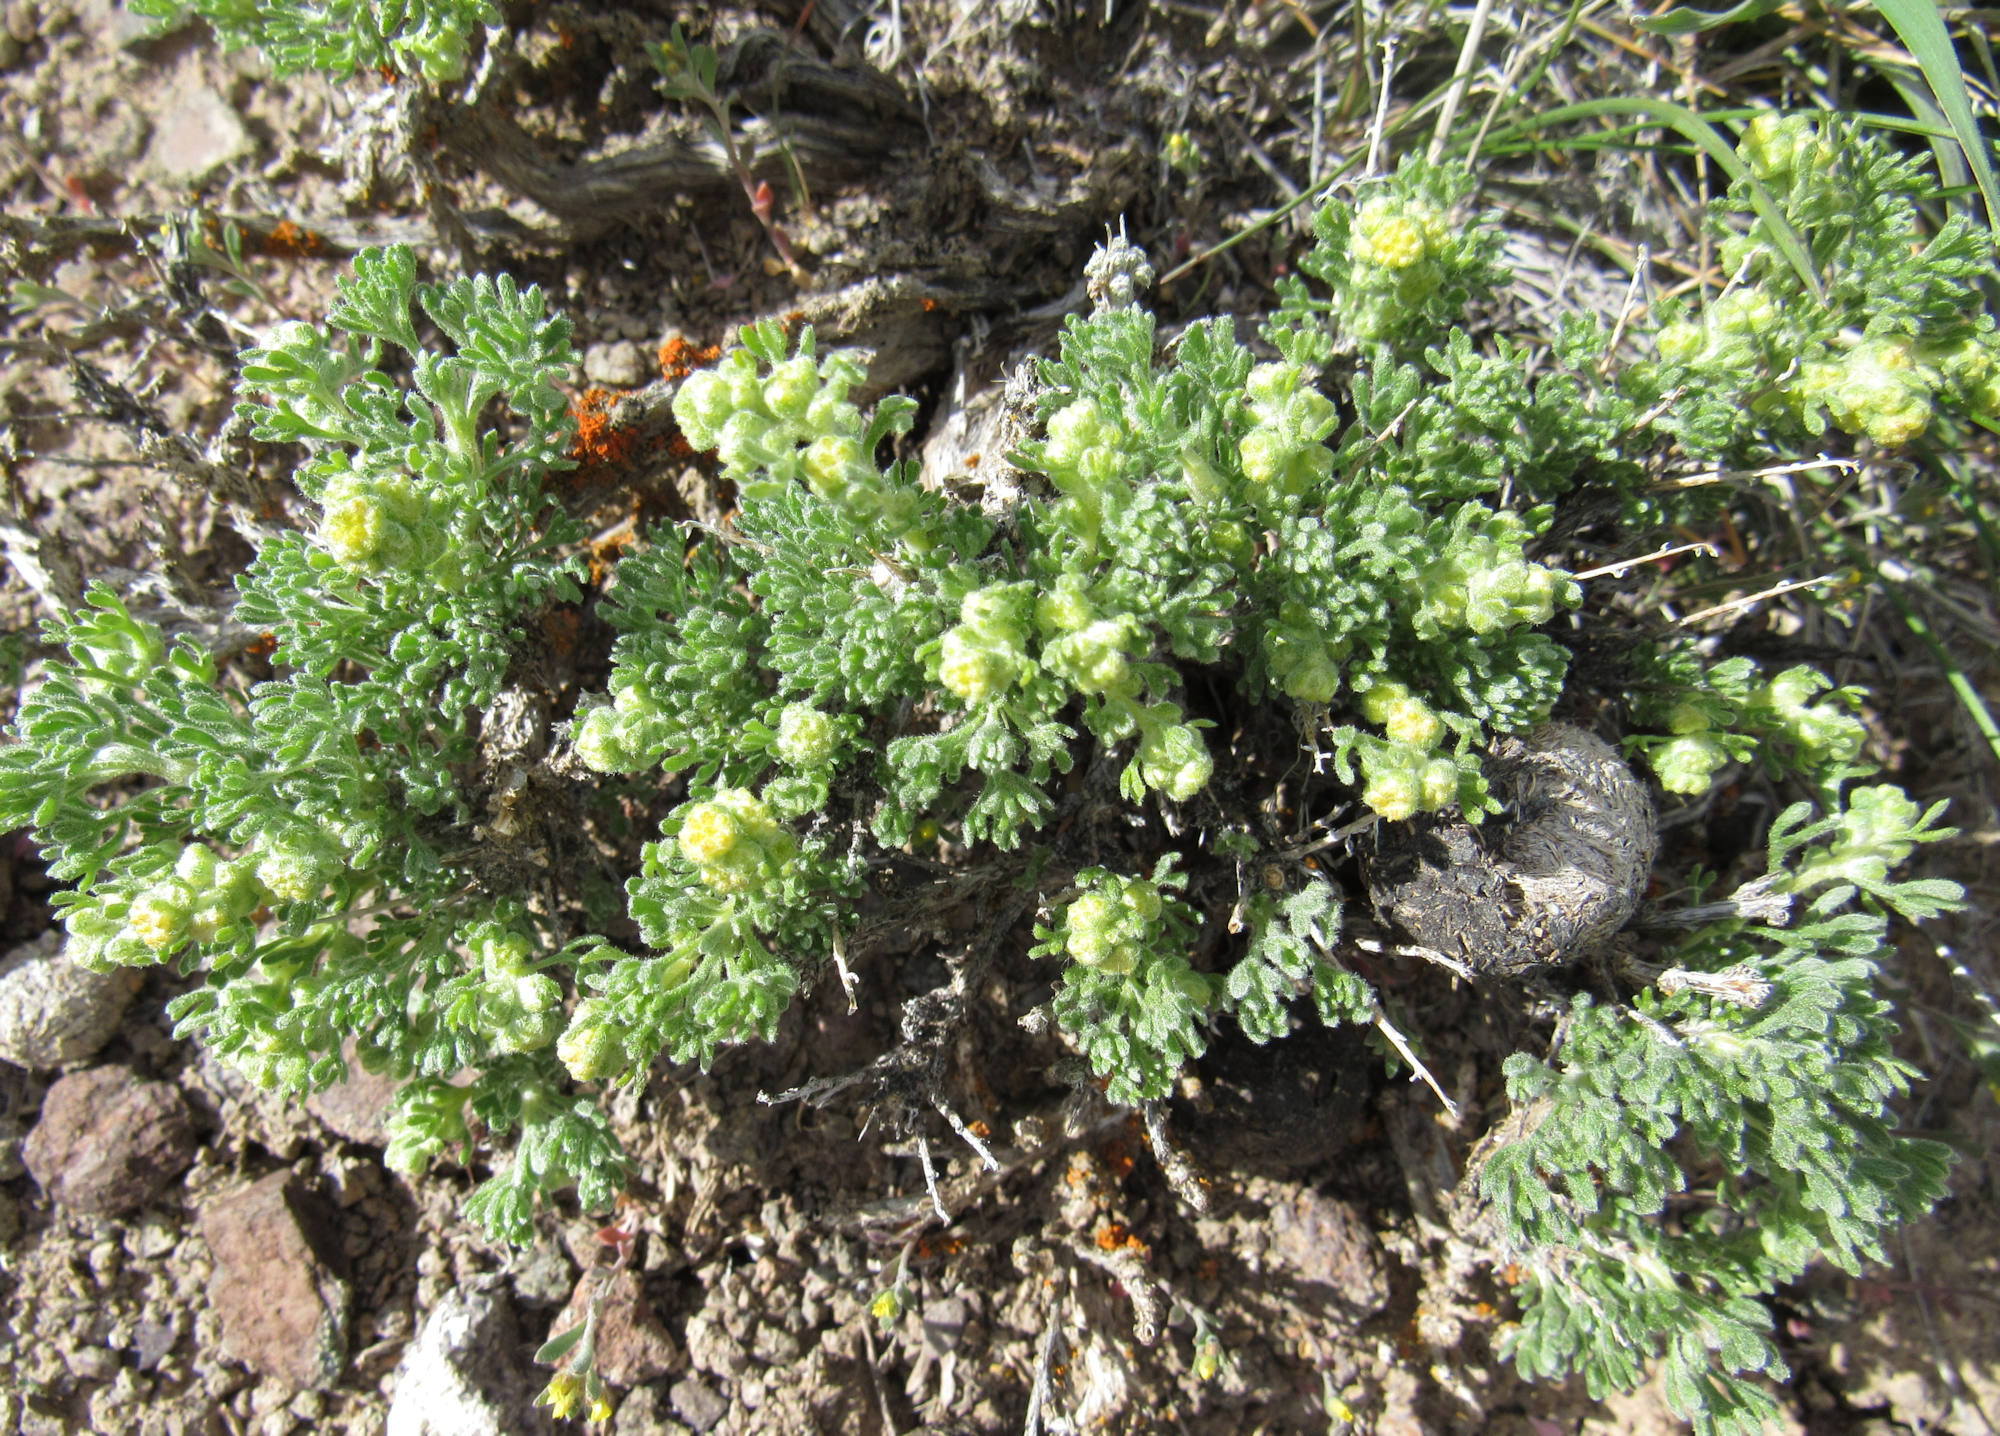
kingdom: Plantae
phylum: Tracheophyta
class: Magnoliopsida
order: Asterales
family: Asteraceae
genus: Artemisia
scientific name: Artemisia spinescens
